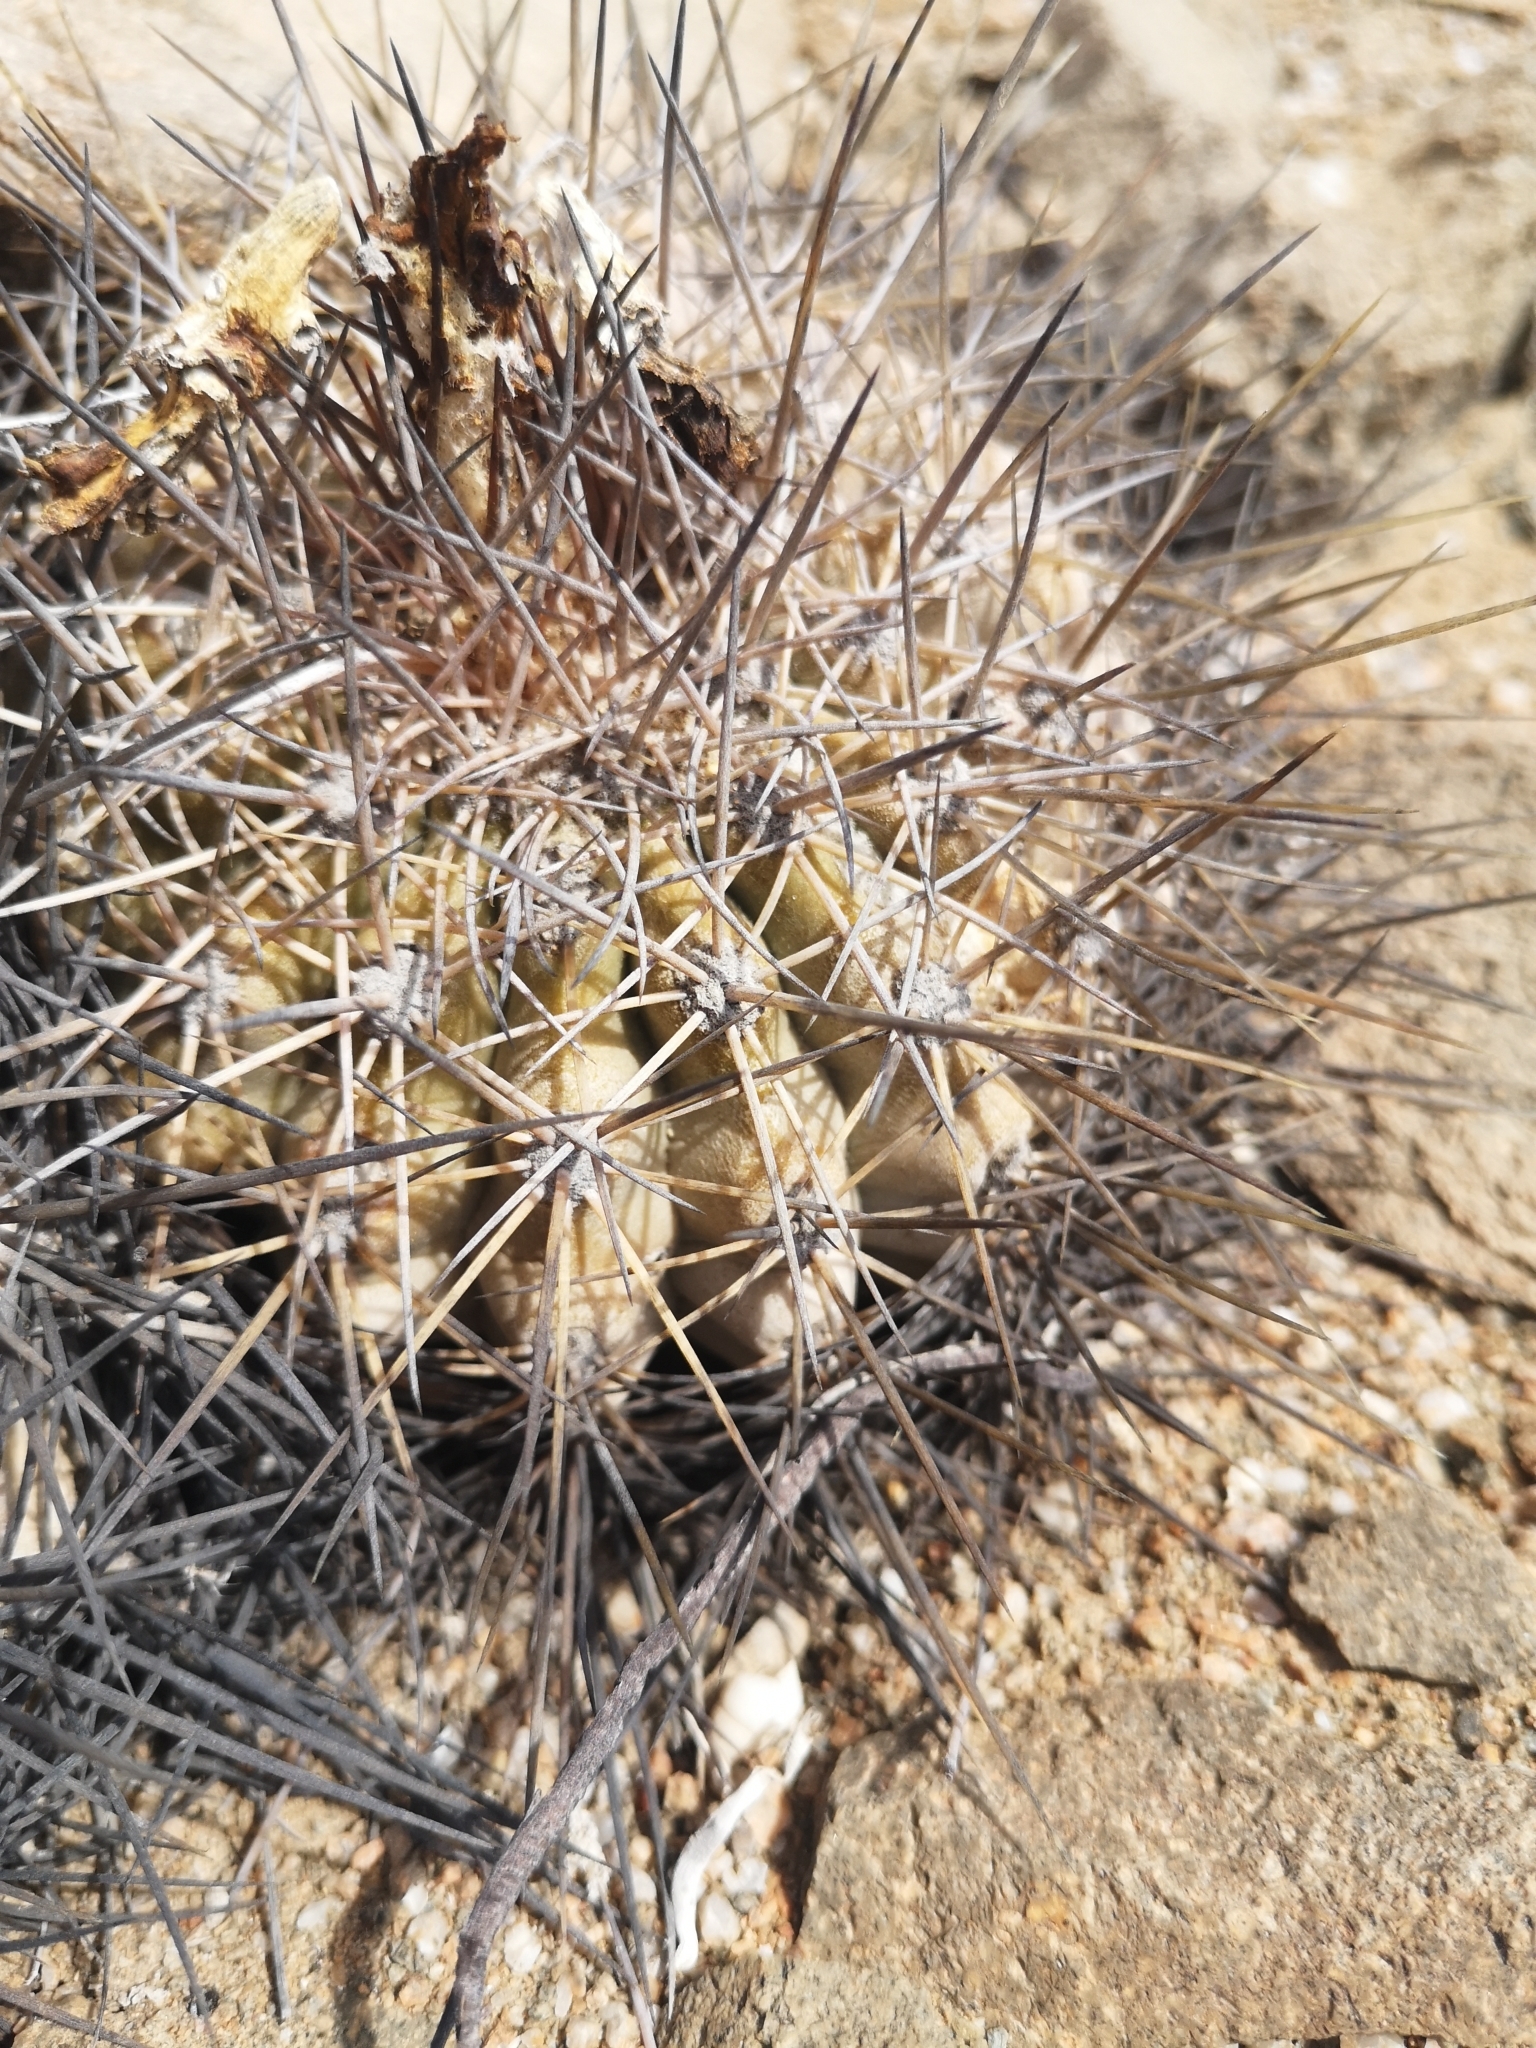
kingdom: Plantae
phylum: Tracheophyta
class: Magnoliopsida
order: Caryophyllales
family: Cactaceae
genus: Copiapoa
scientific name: Copiapoa grandiflora
